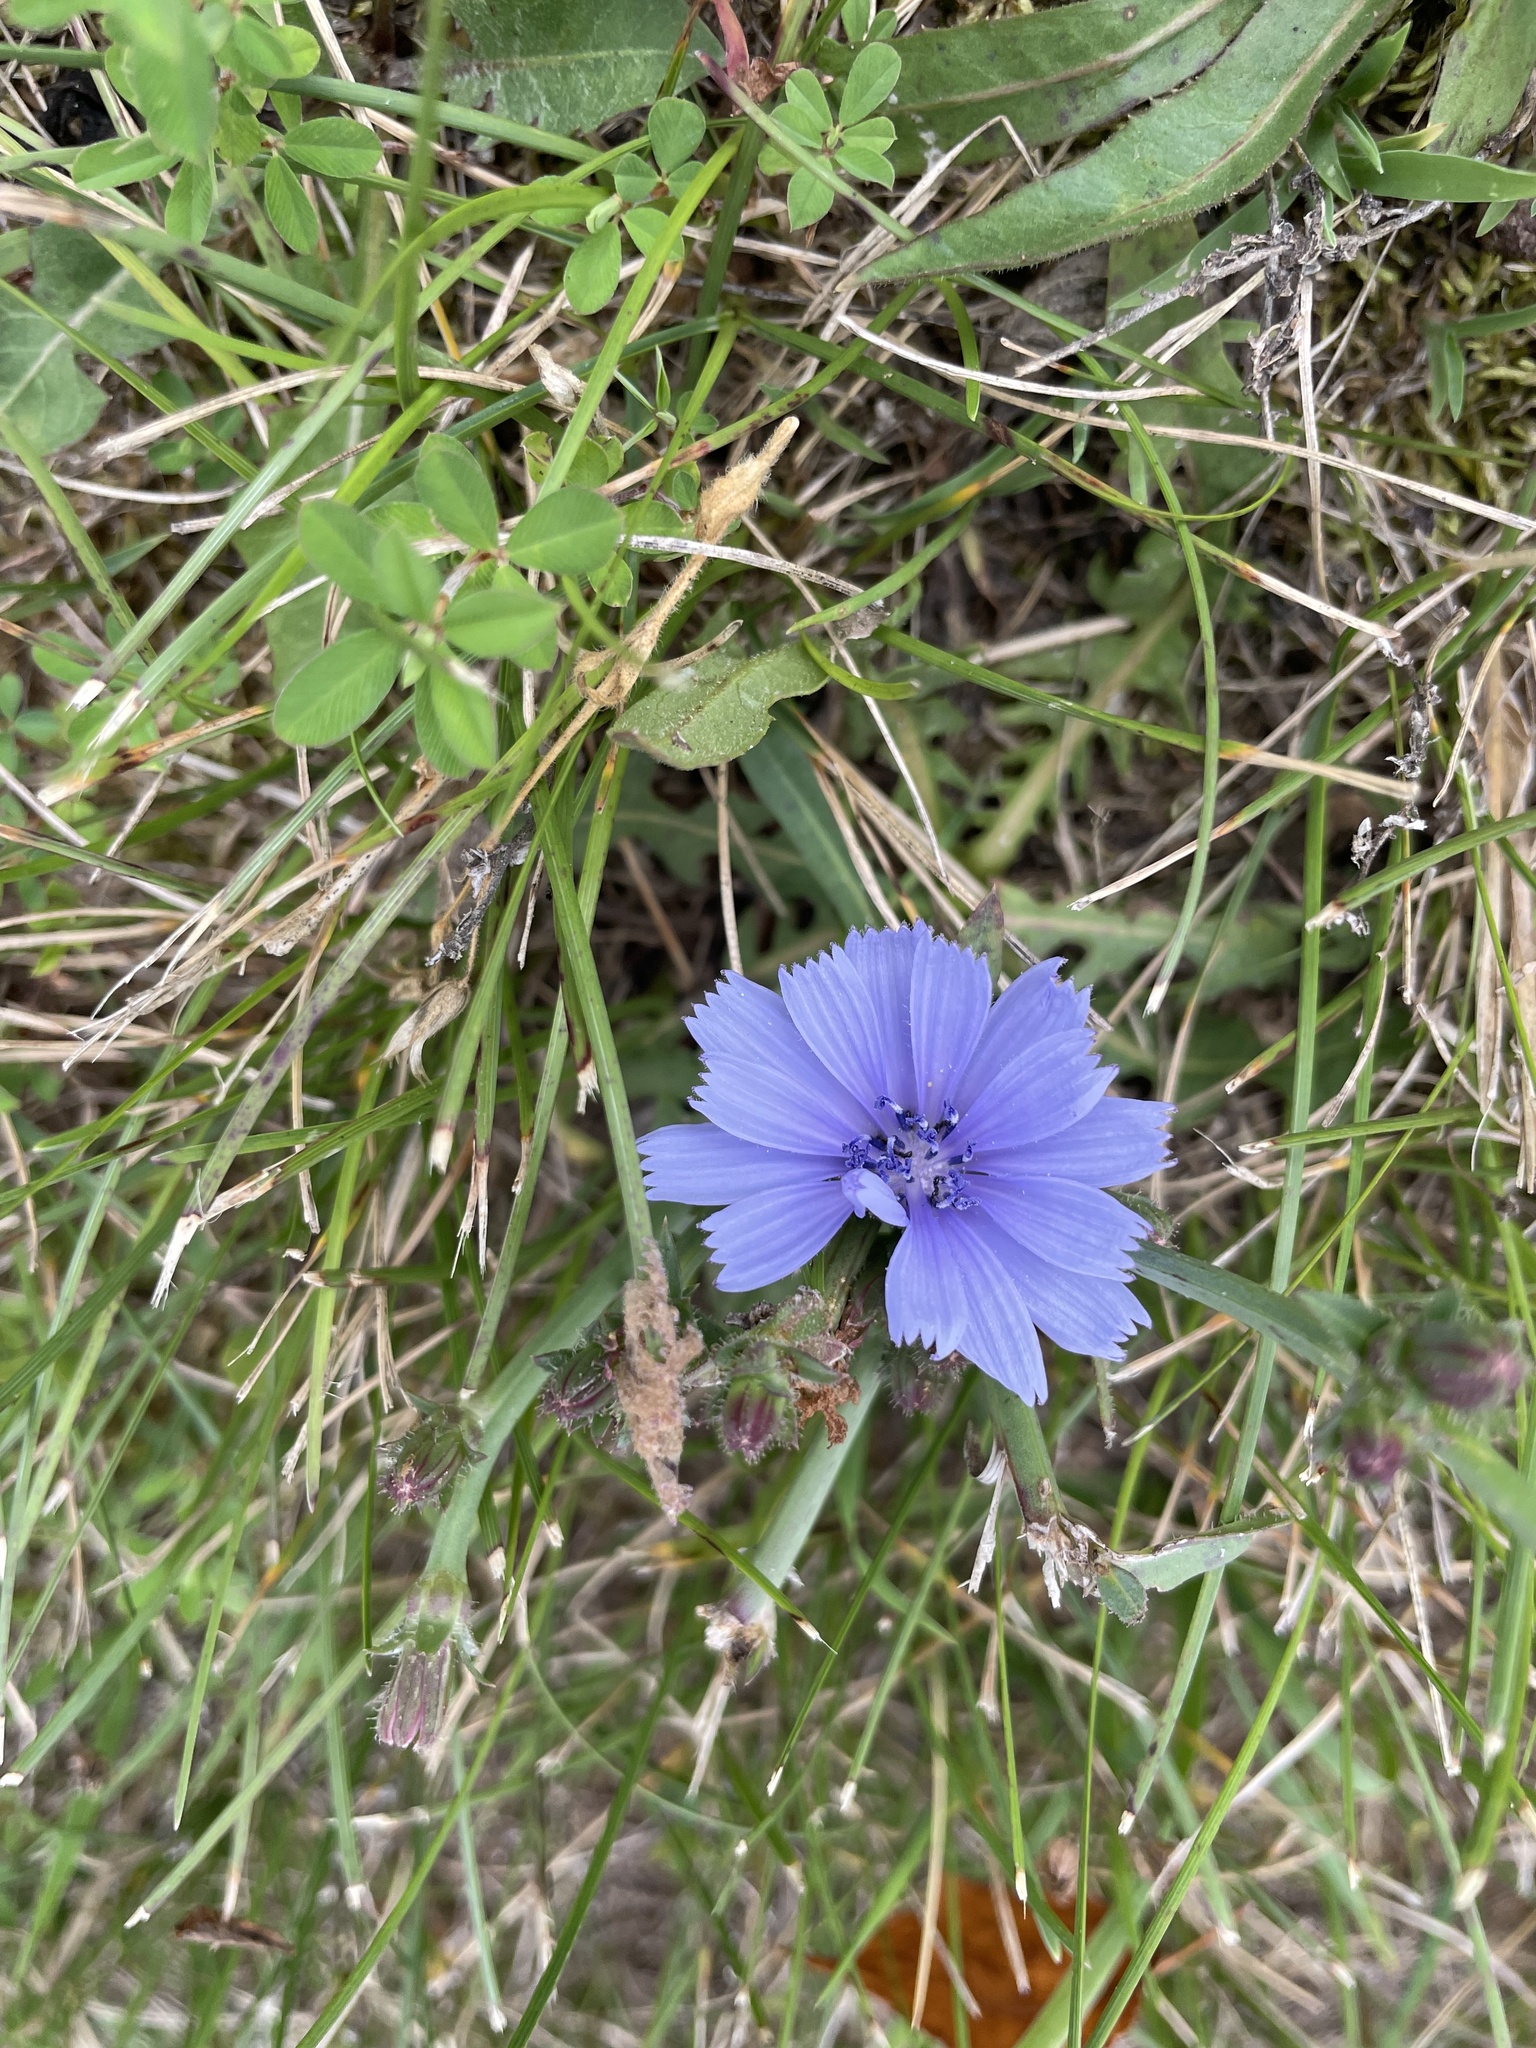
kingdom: Plantae
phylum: Tracheophyta
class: Magnoliopsida
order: Asterales
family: Asteraceae
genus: Cichorium
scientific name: Cichorium intybus
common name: Chicory
